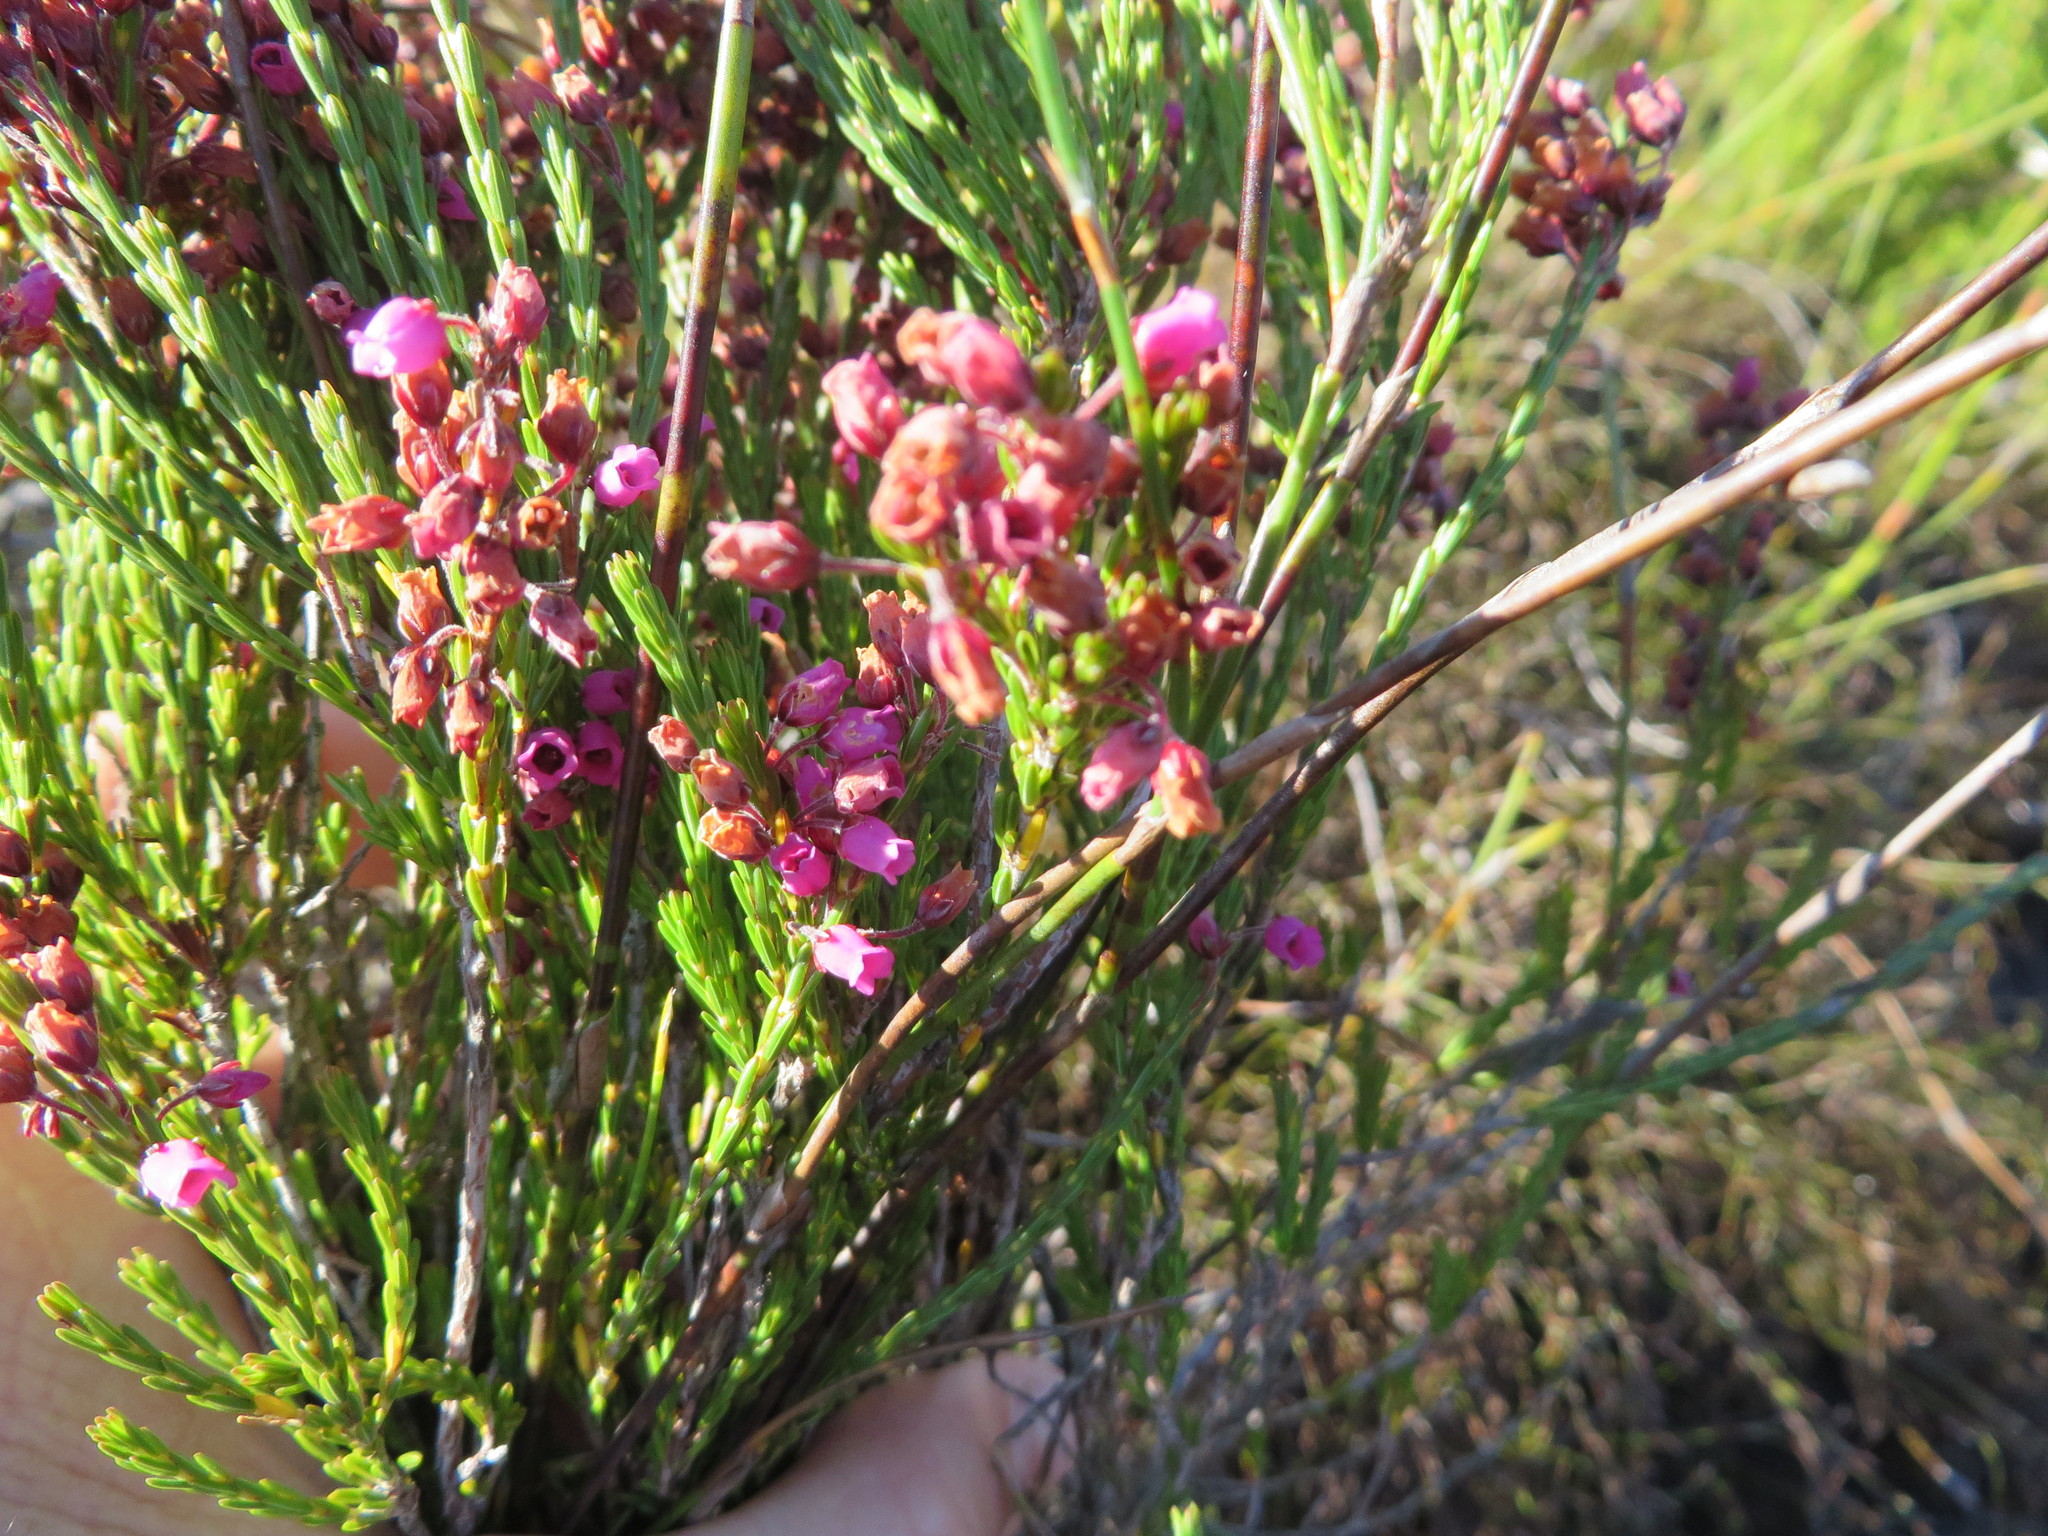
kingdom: Plantae
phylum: Tracheophyta
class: Magnoliopsida
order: Ericales
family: Ericaceae
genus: Erica
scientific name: Erica pulchella
